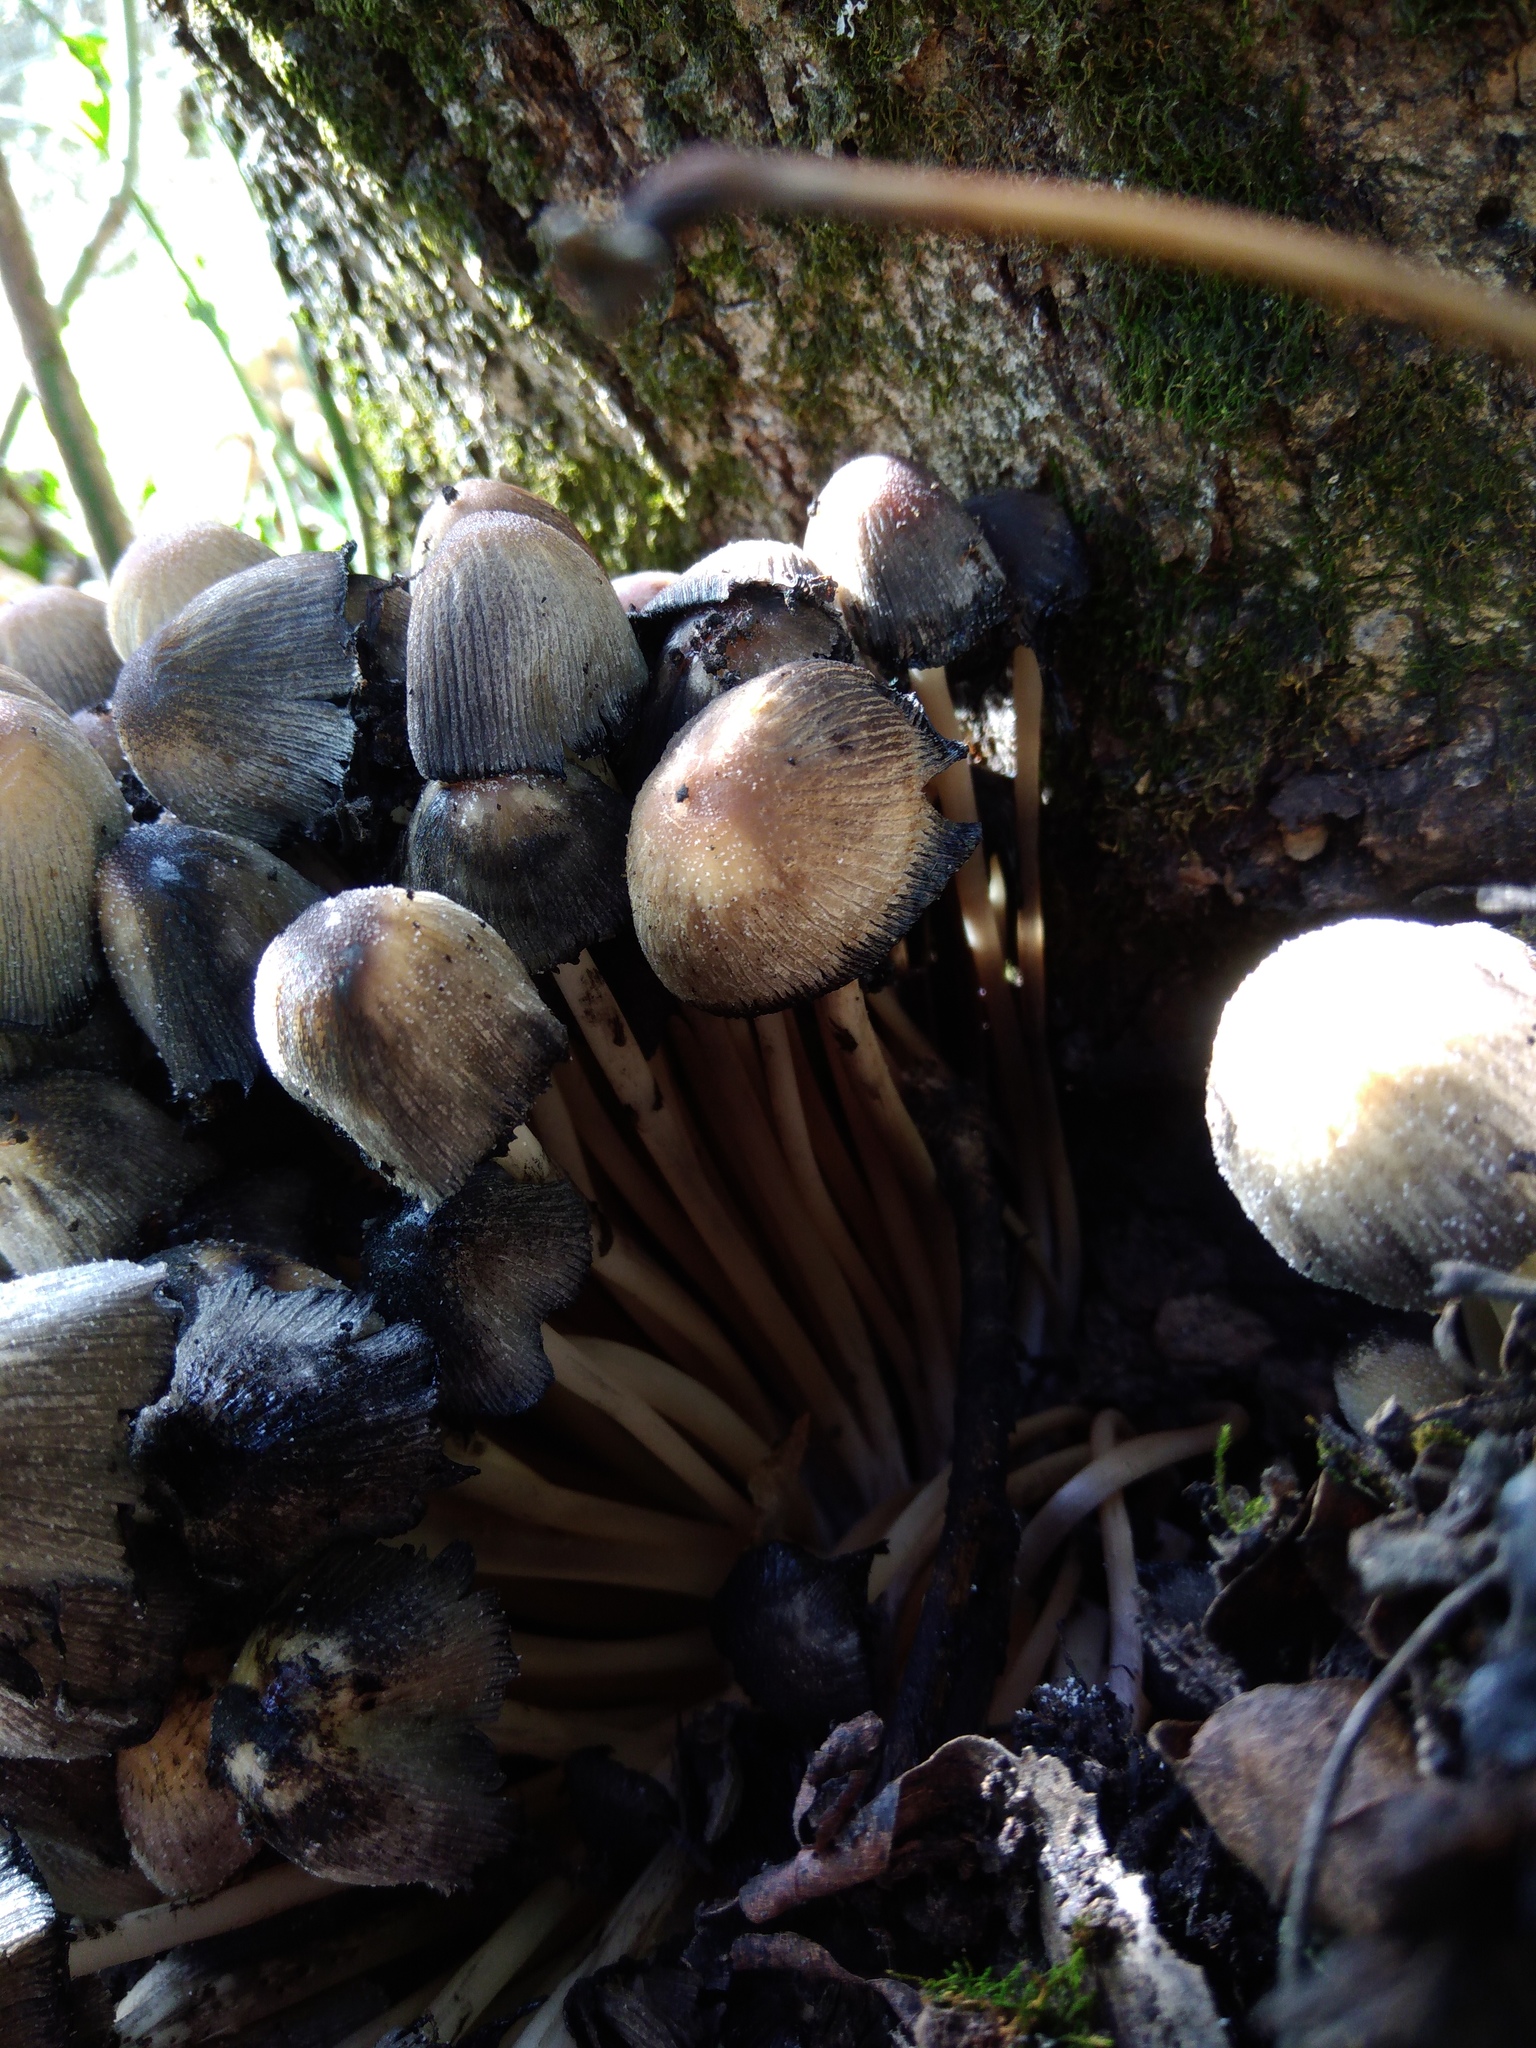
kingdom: Fungi
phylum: Basidiomycota
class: Agaricomycetes
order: Agaricales
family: Psathyrellaceae
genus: Coprinellus
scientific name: Coprinellus micaceus
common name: Glistening ink-cap
